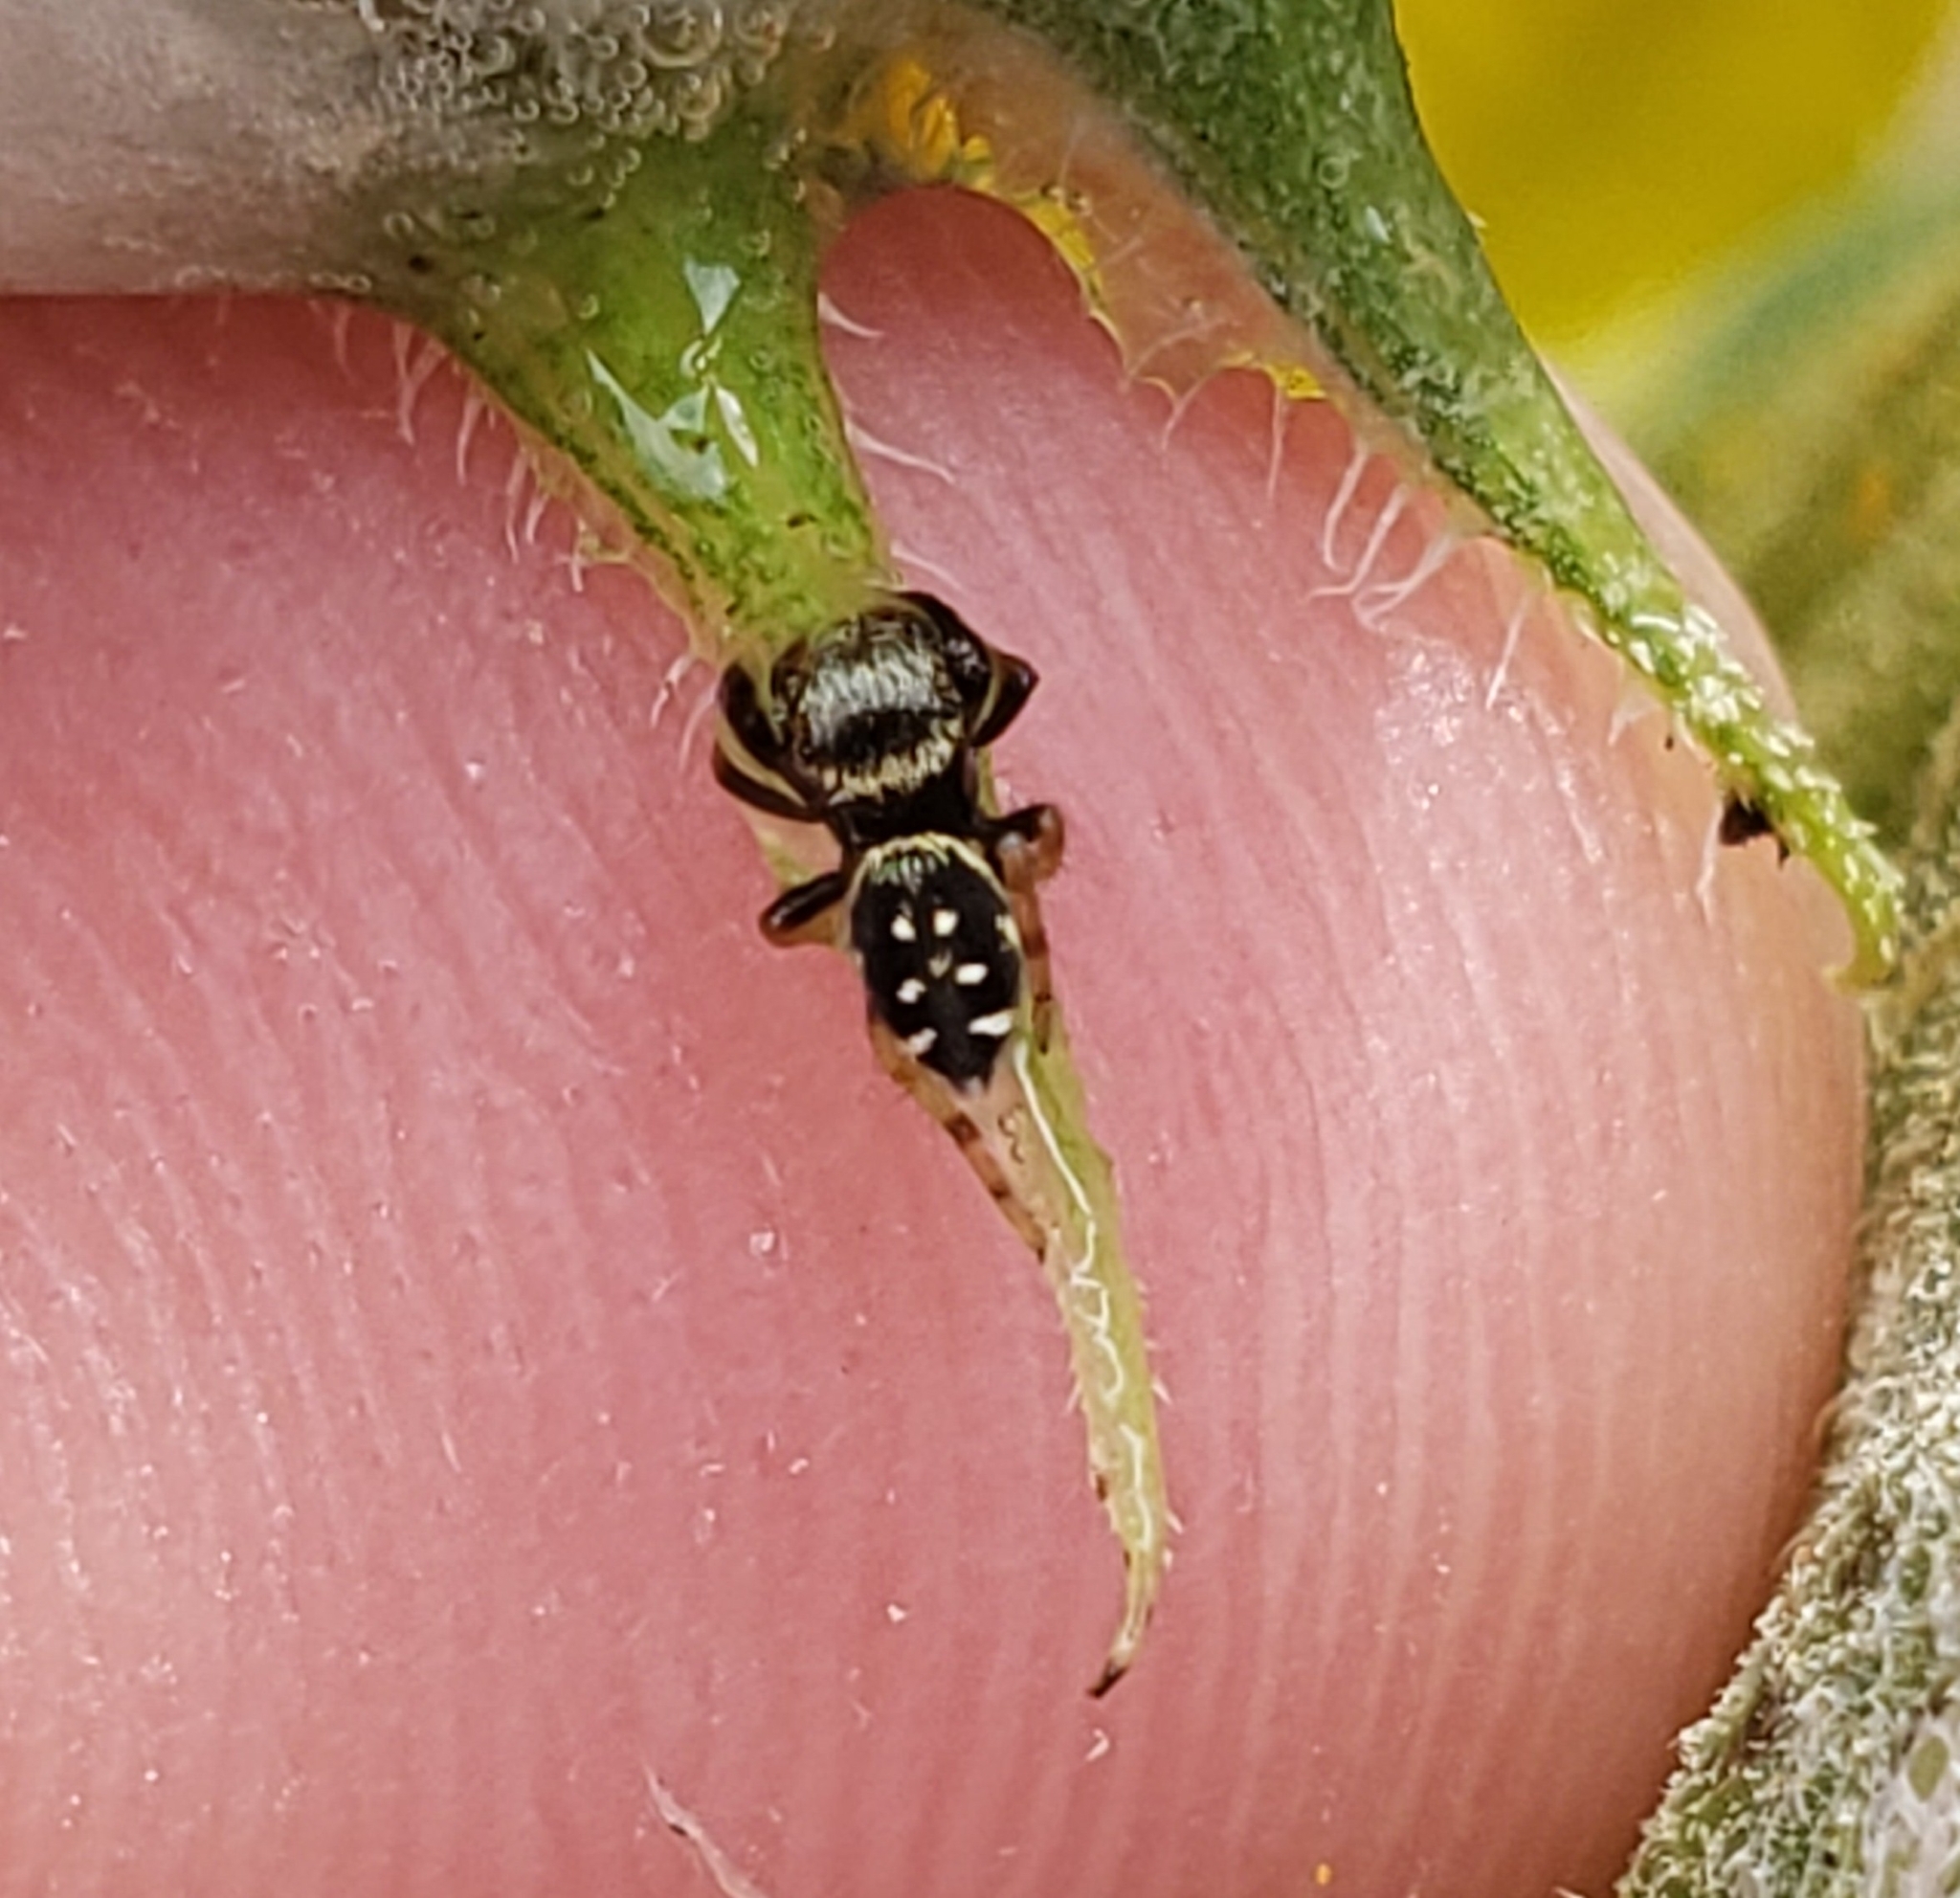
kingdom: Animalia
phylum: Arthropoda
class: Arachnida
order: Araneae
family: Salticidae
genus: Phidippus
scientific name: Phidippus audax
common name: Bold jumper
